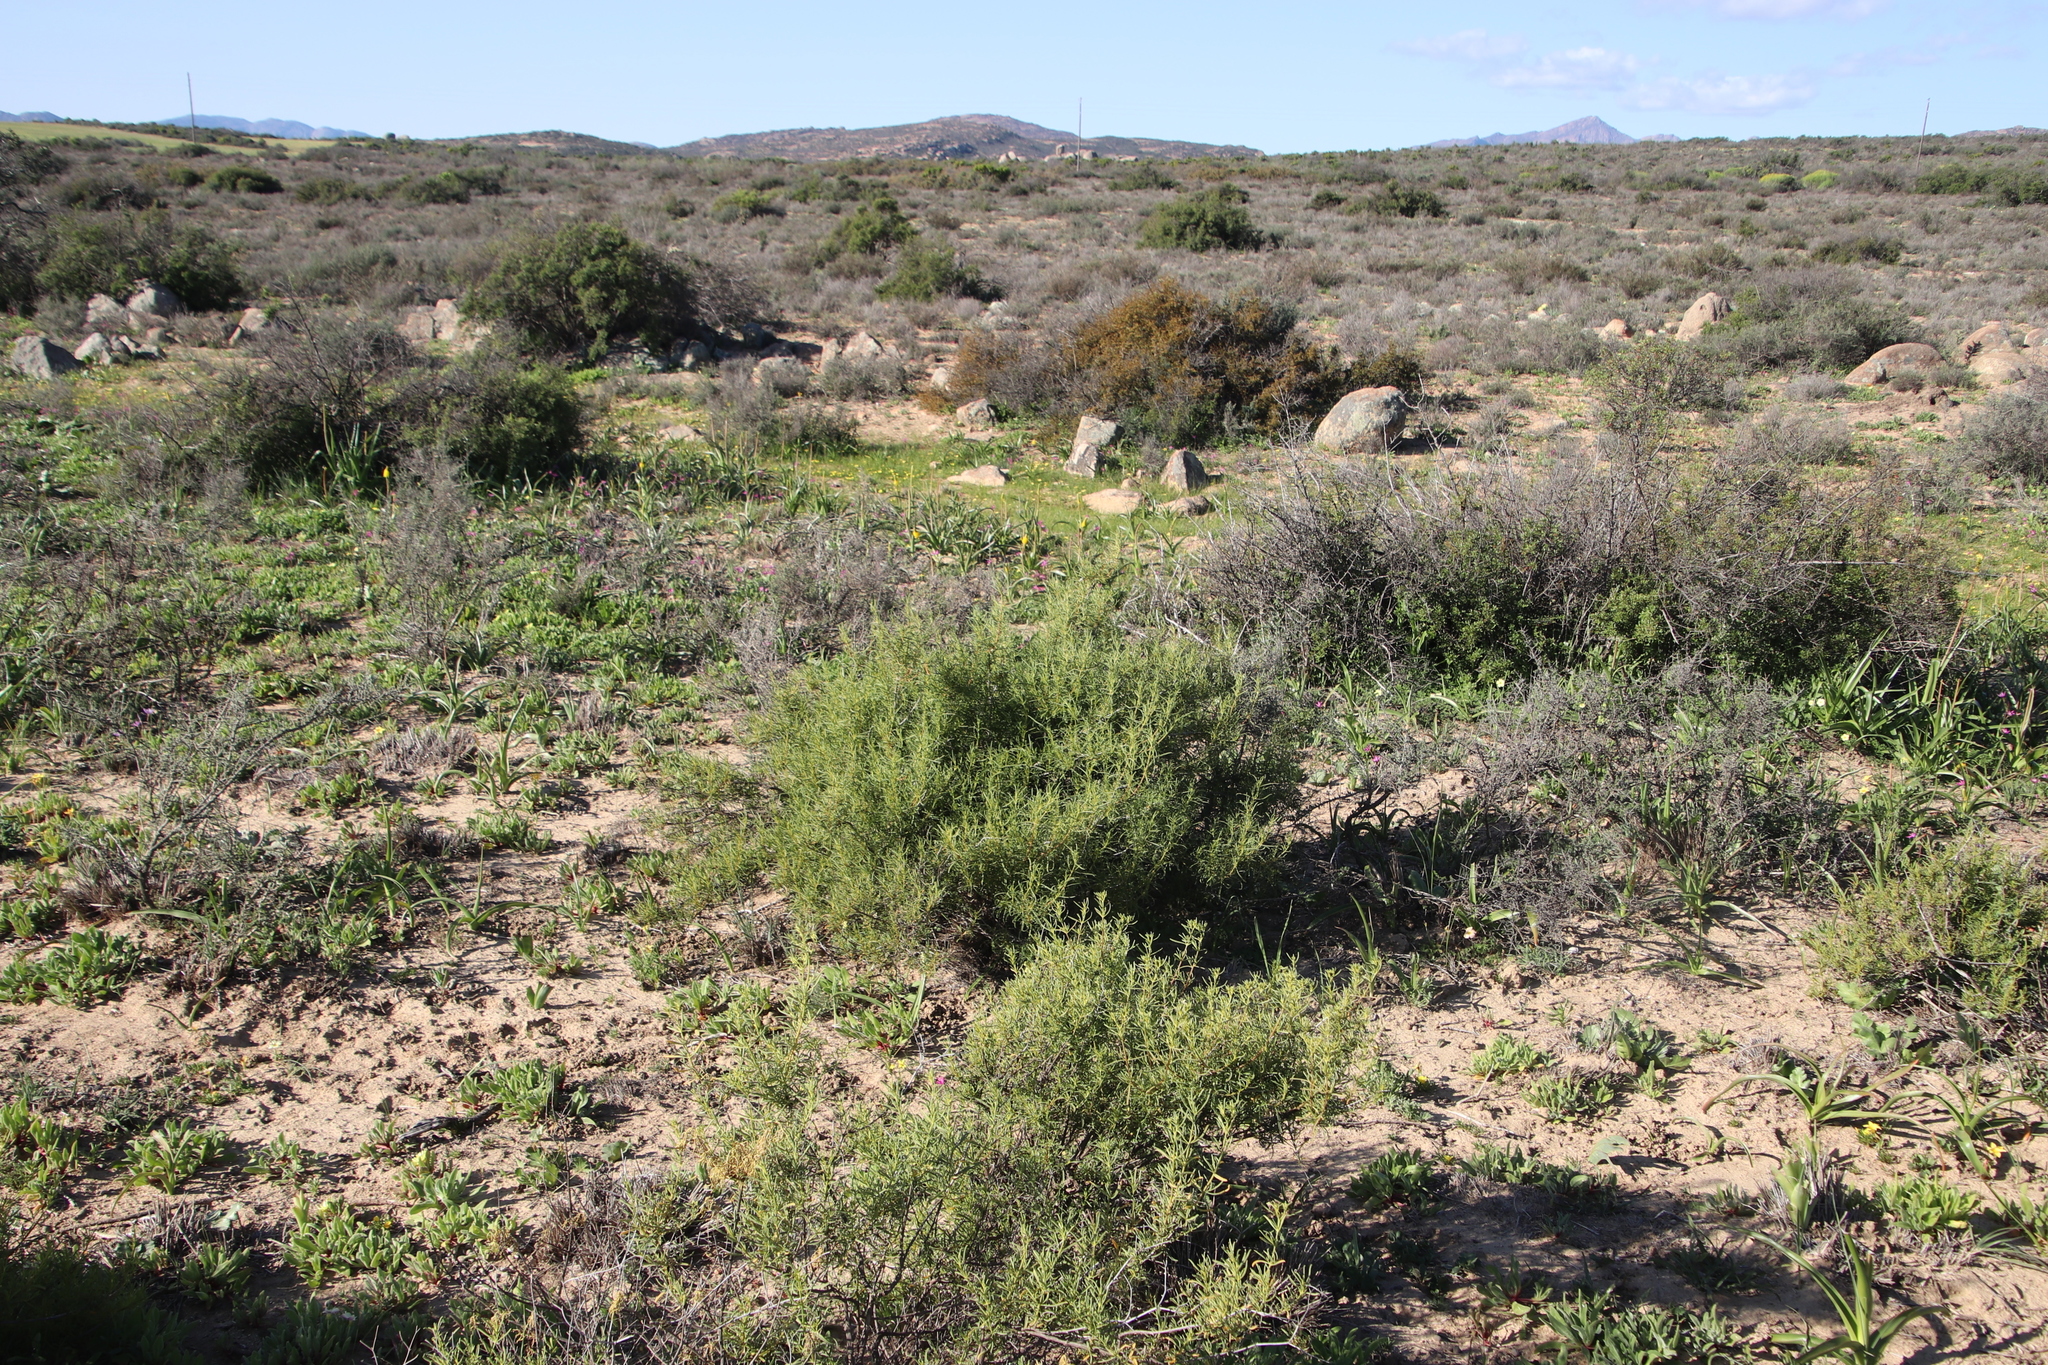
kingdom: Plantae
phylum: Tracheophyta
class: Magnoliopsida
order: Caryophyllales
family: Aizoaceae
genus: Aizoon
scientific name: Aizoon africanum
